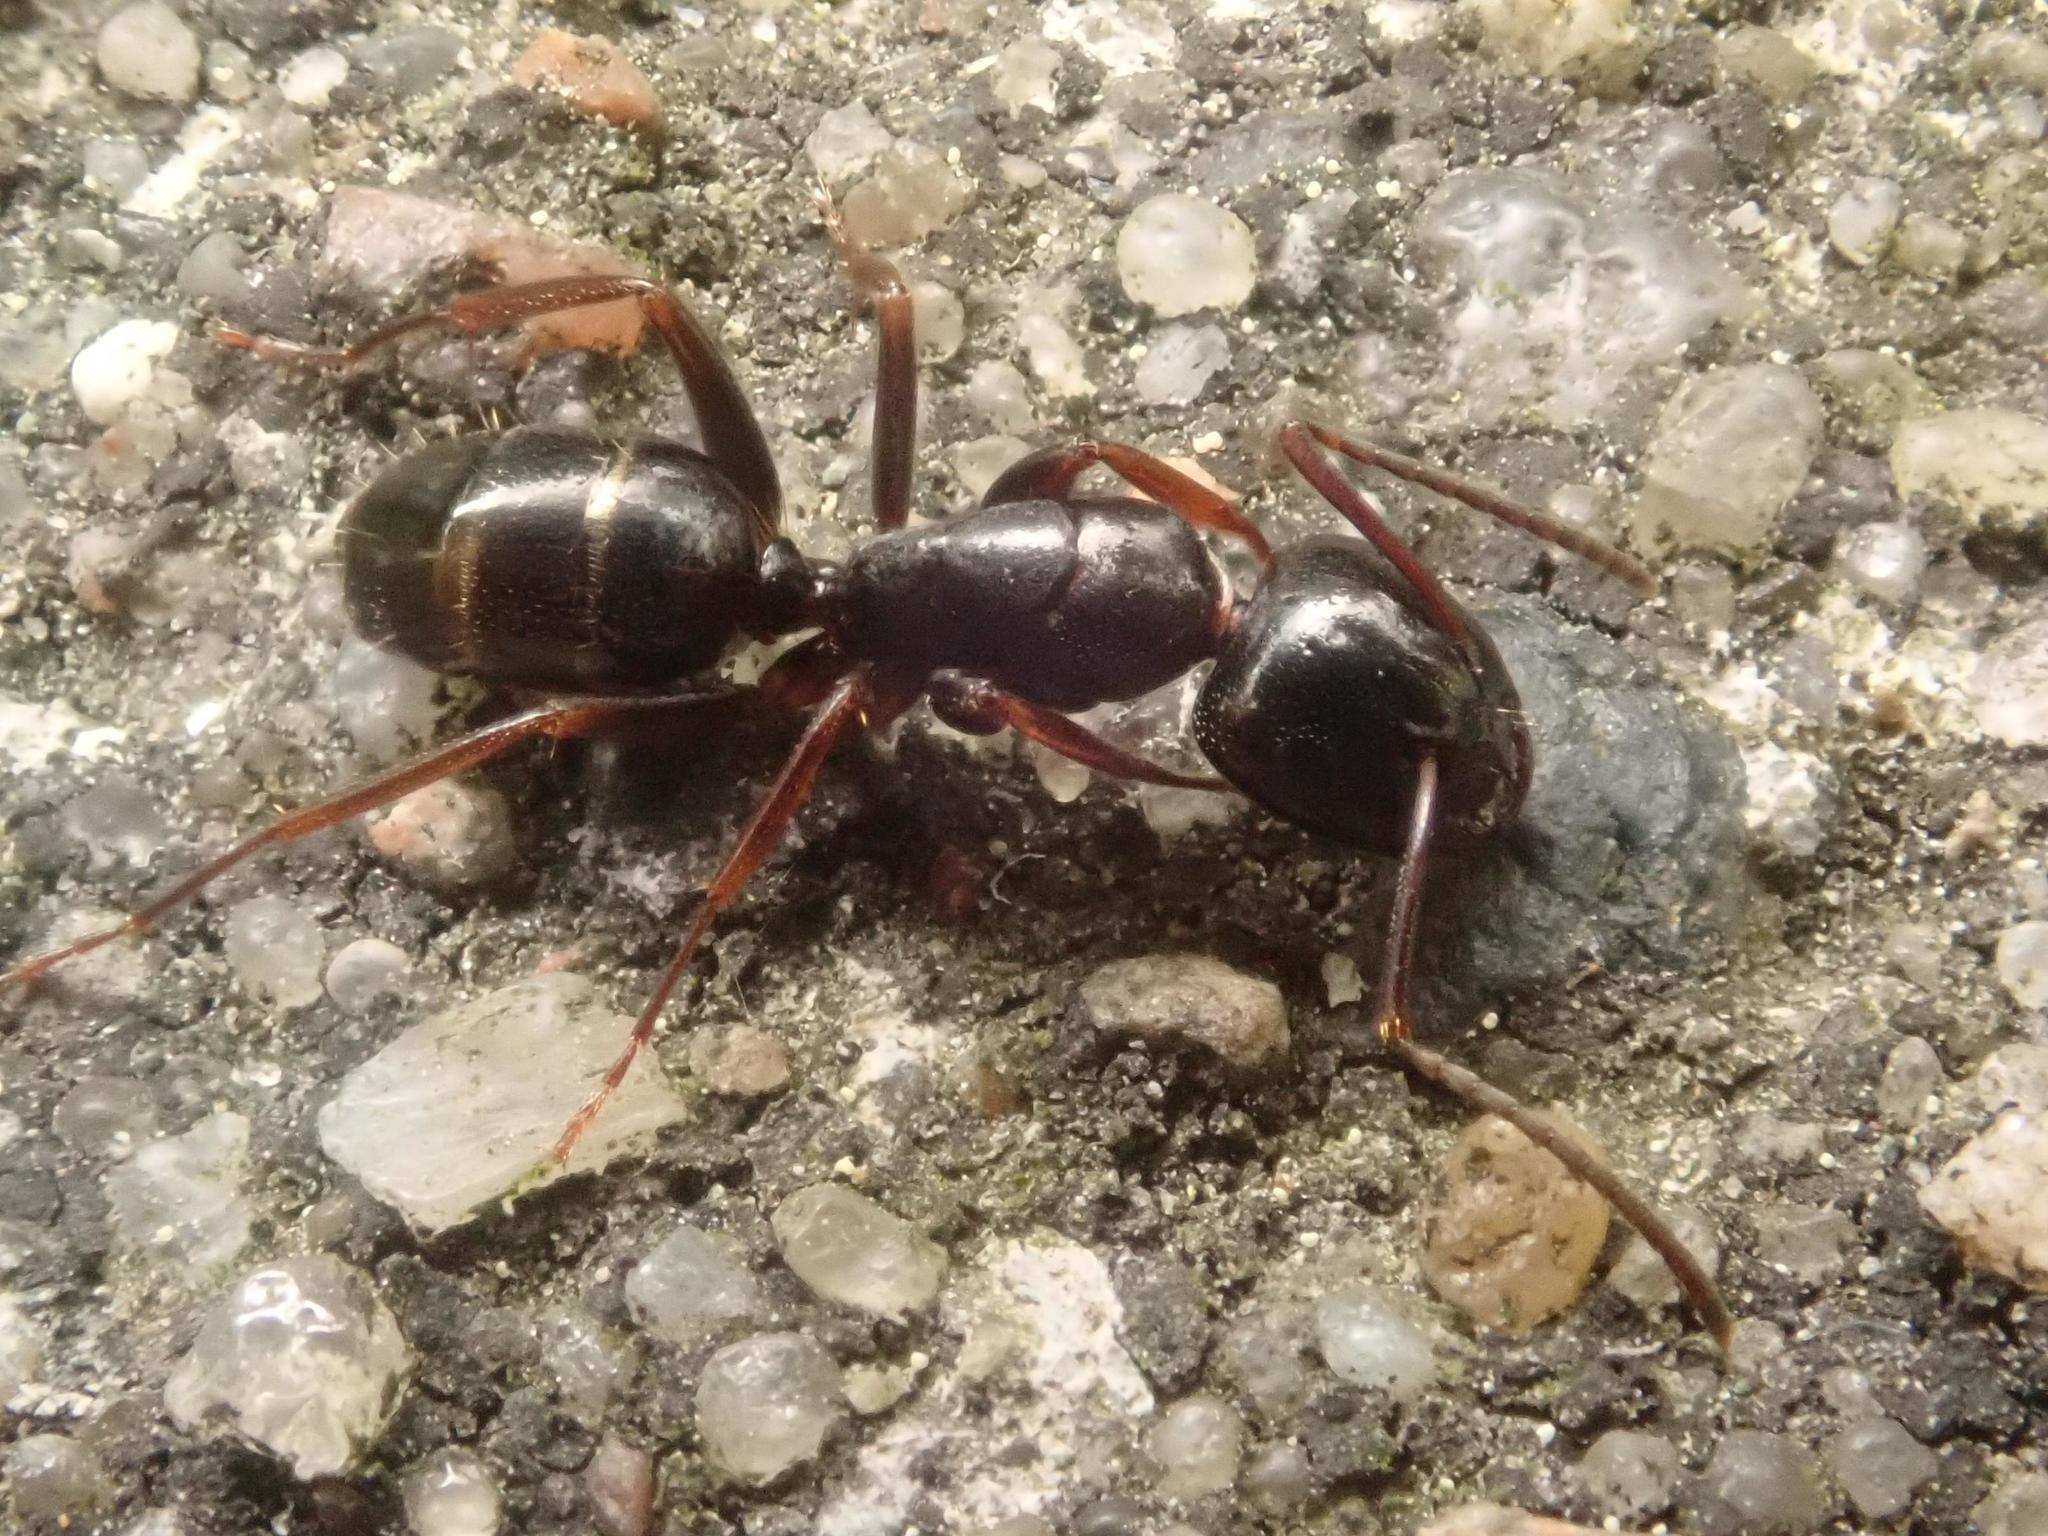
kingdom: Animalia
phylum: Arthropoda
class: Insecta
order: Hymenoptera
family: Formicidae
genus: Camponotus
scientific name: Camponotus fallax
